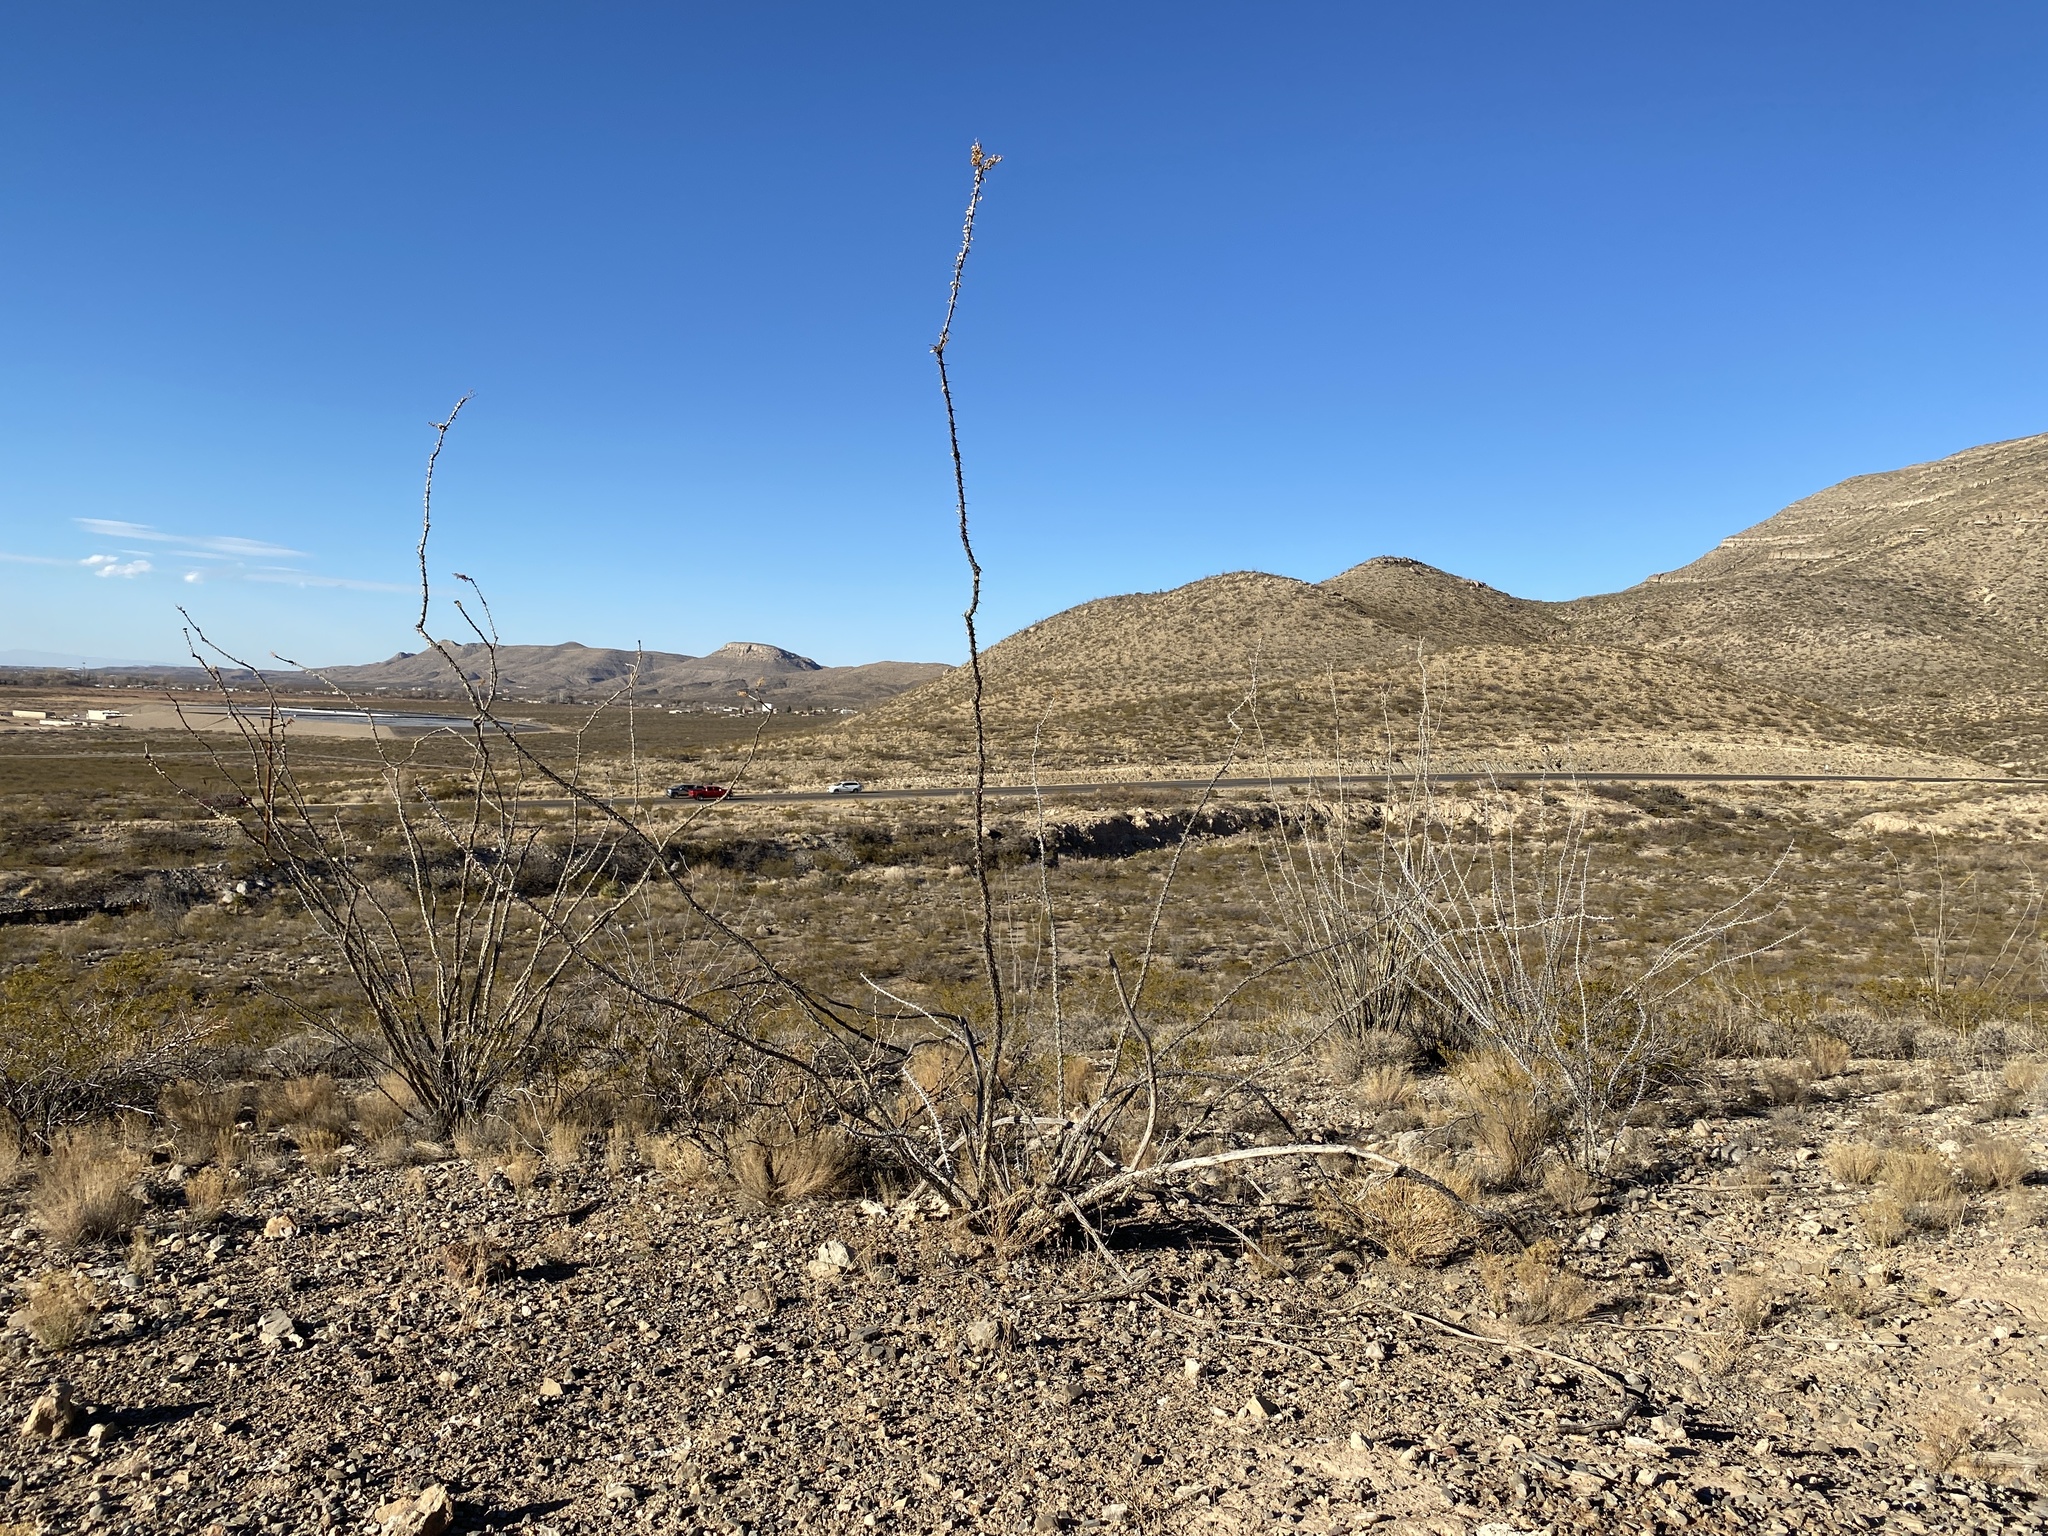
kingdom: Plantae
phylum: Tracheophyta
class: Magnoliopsida
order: Ericales
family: Fouquieriaceae
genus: Fouquieria
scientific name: Fouquieria splendens
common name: Vine-cactus
